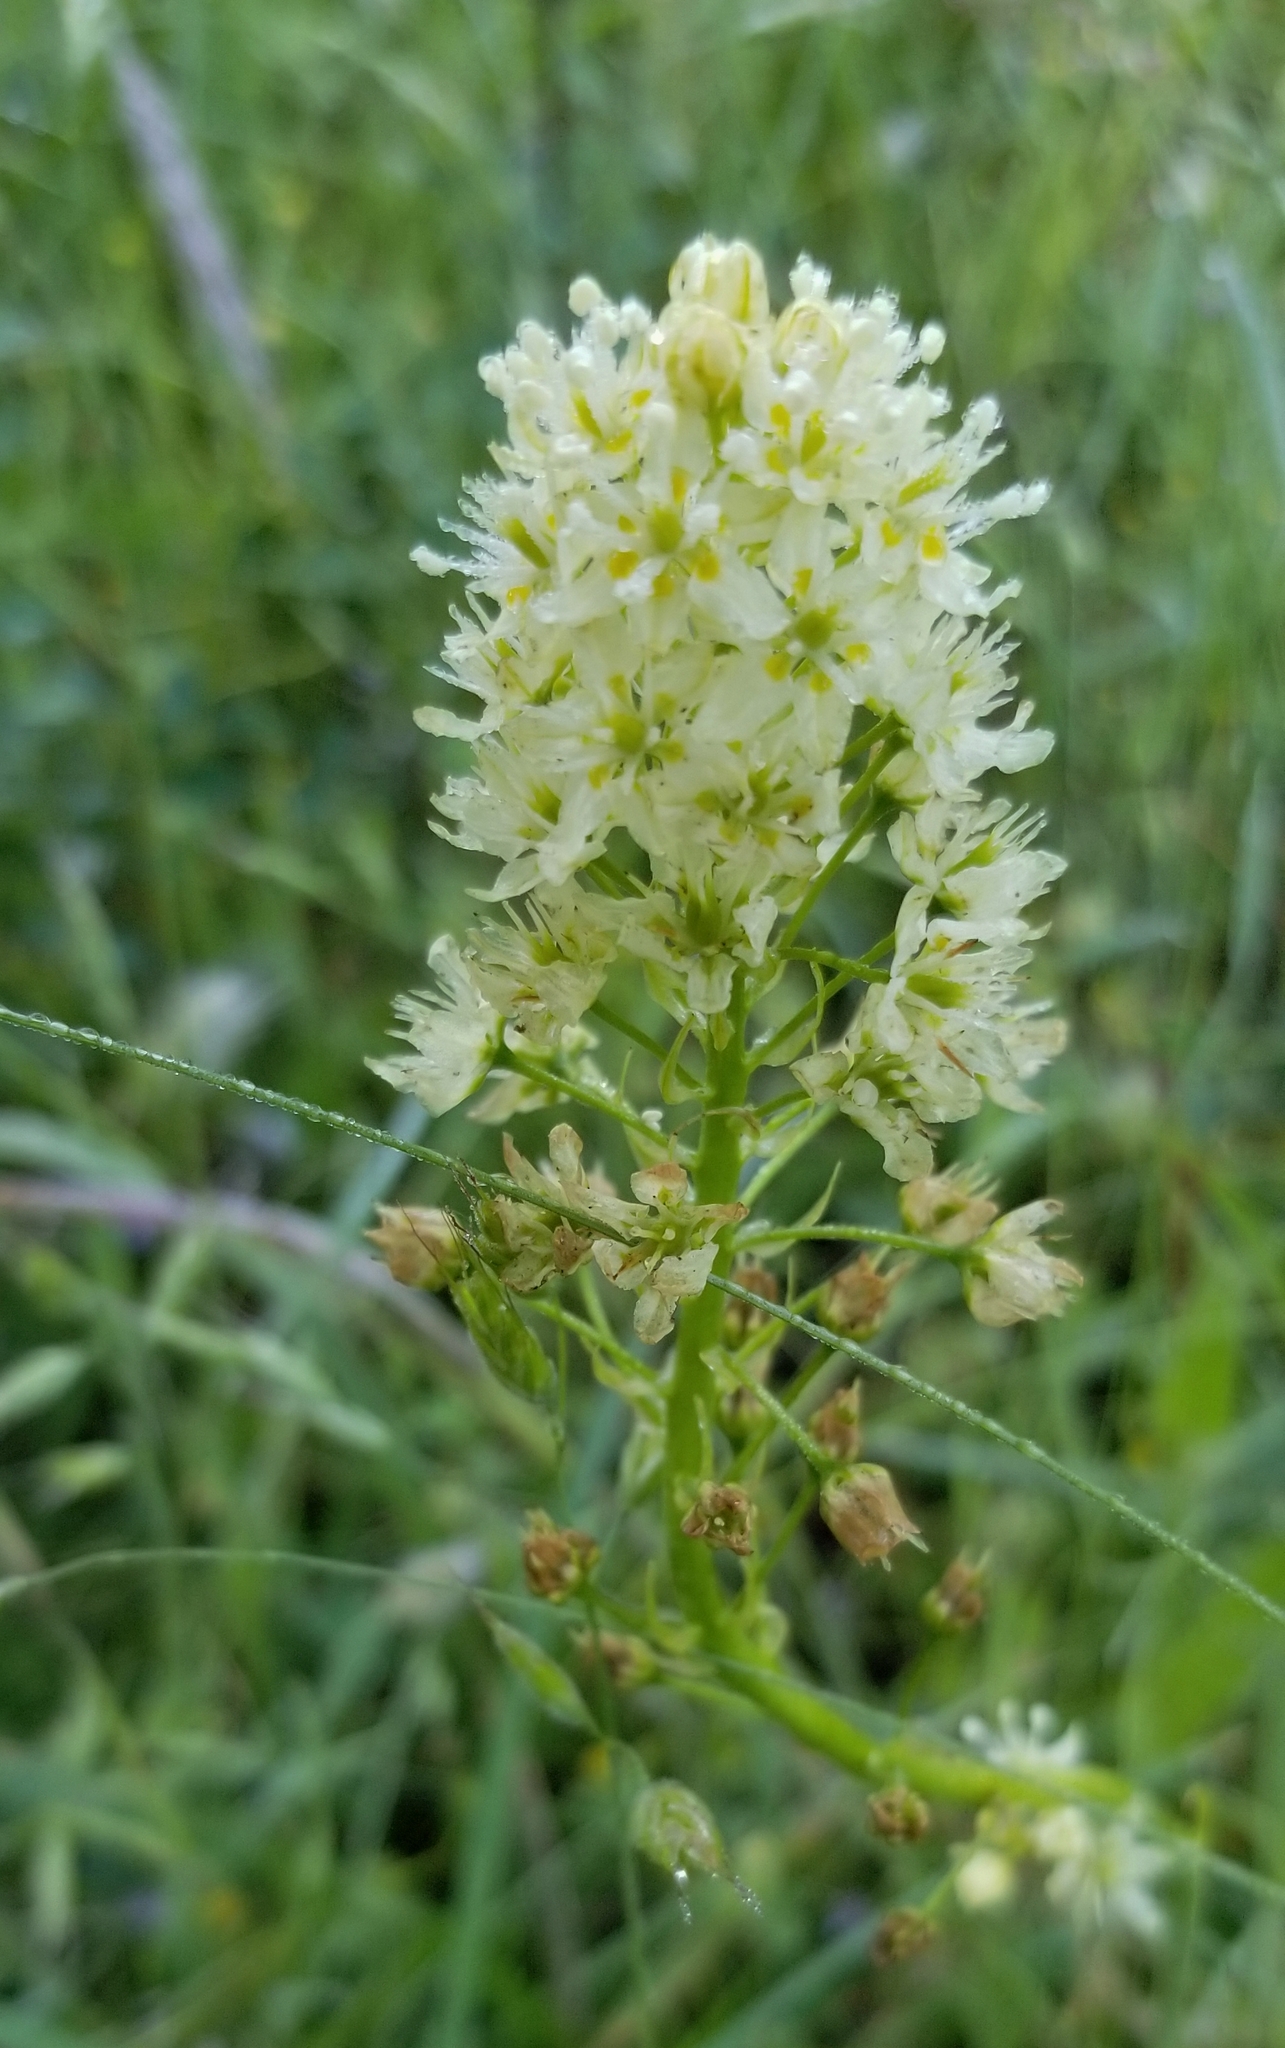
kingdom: Plantae
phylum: Tracheophyta
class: Liliopsida
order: Liliales
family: Melanthiaceae
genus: Toxicoscordion
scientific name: Toxicoscordion venenosum
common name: Meadow death camas
